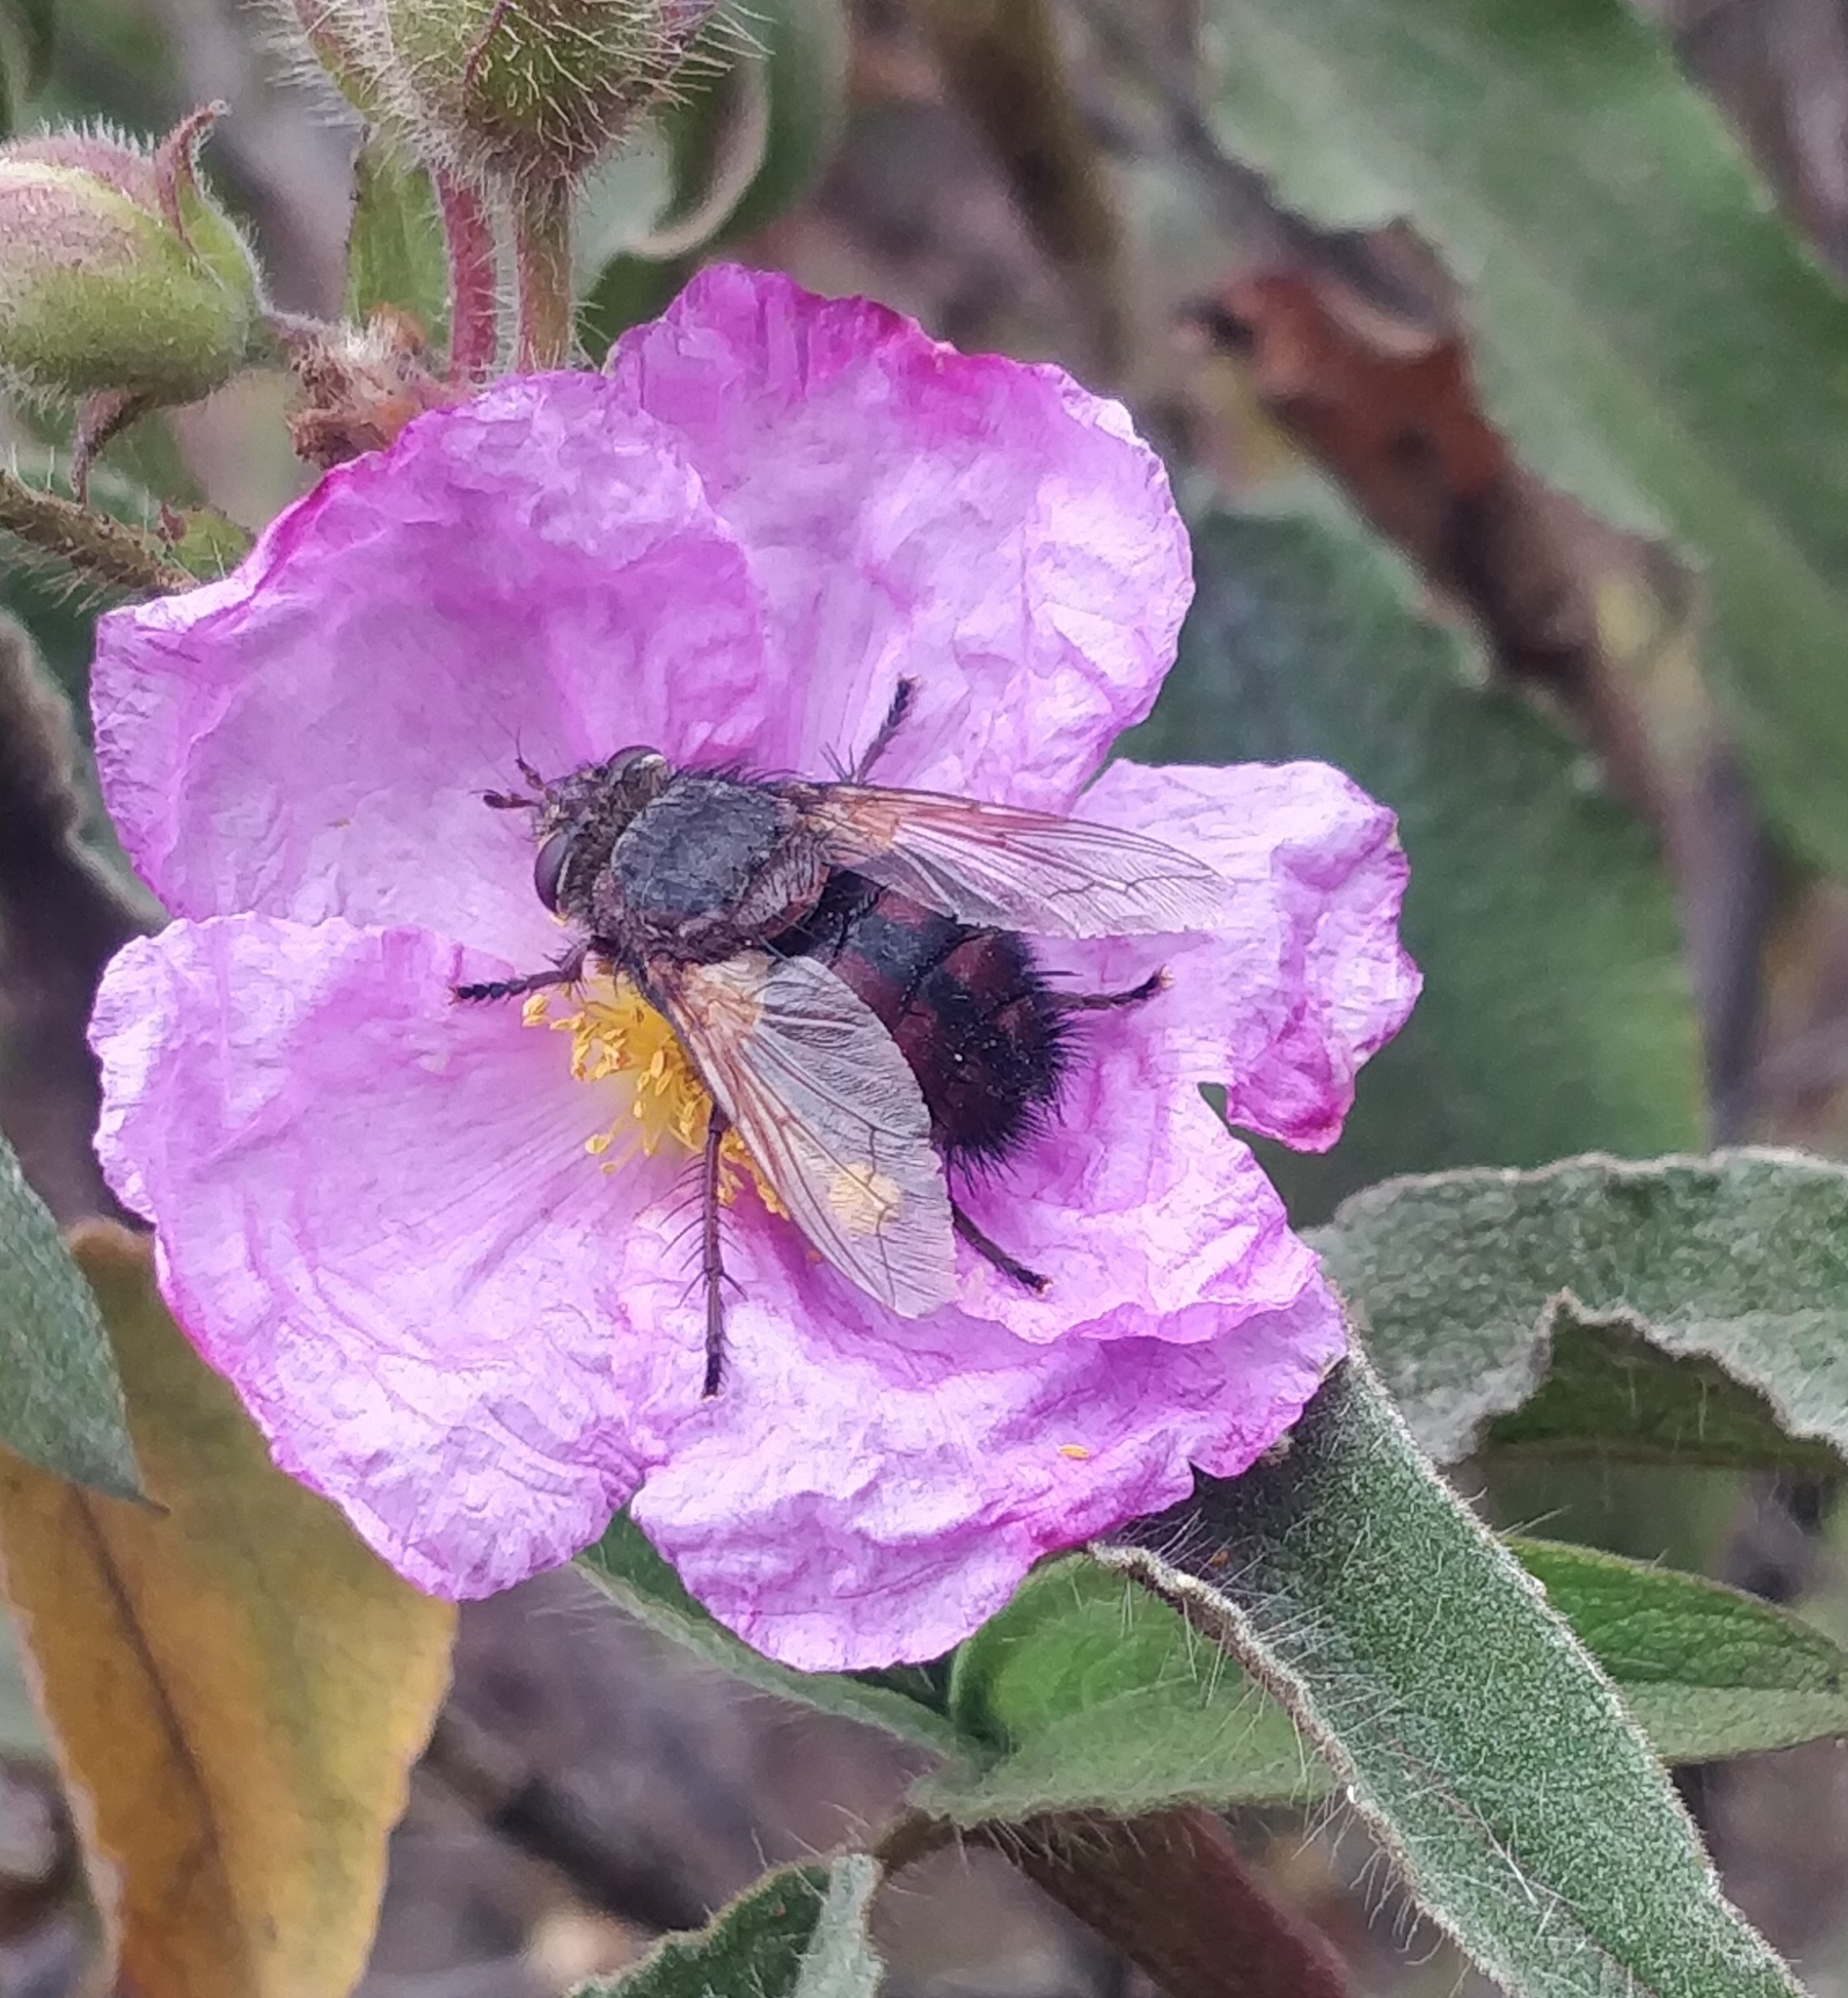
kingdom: Animalia
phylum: Arthropoda
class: Insecta
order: Diptera
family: Tachinidae
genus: Tachina
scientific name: Tachina canariensis
